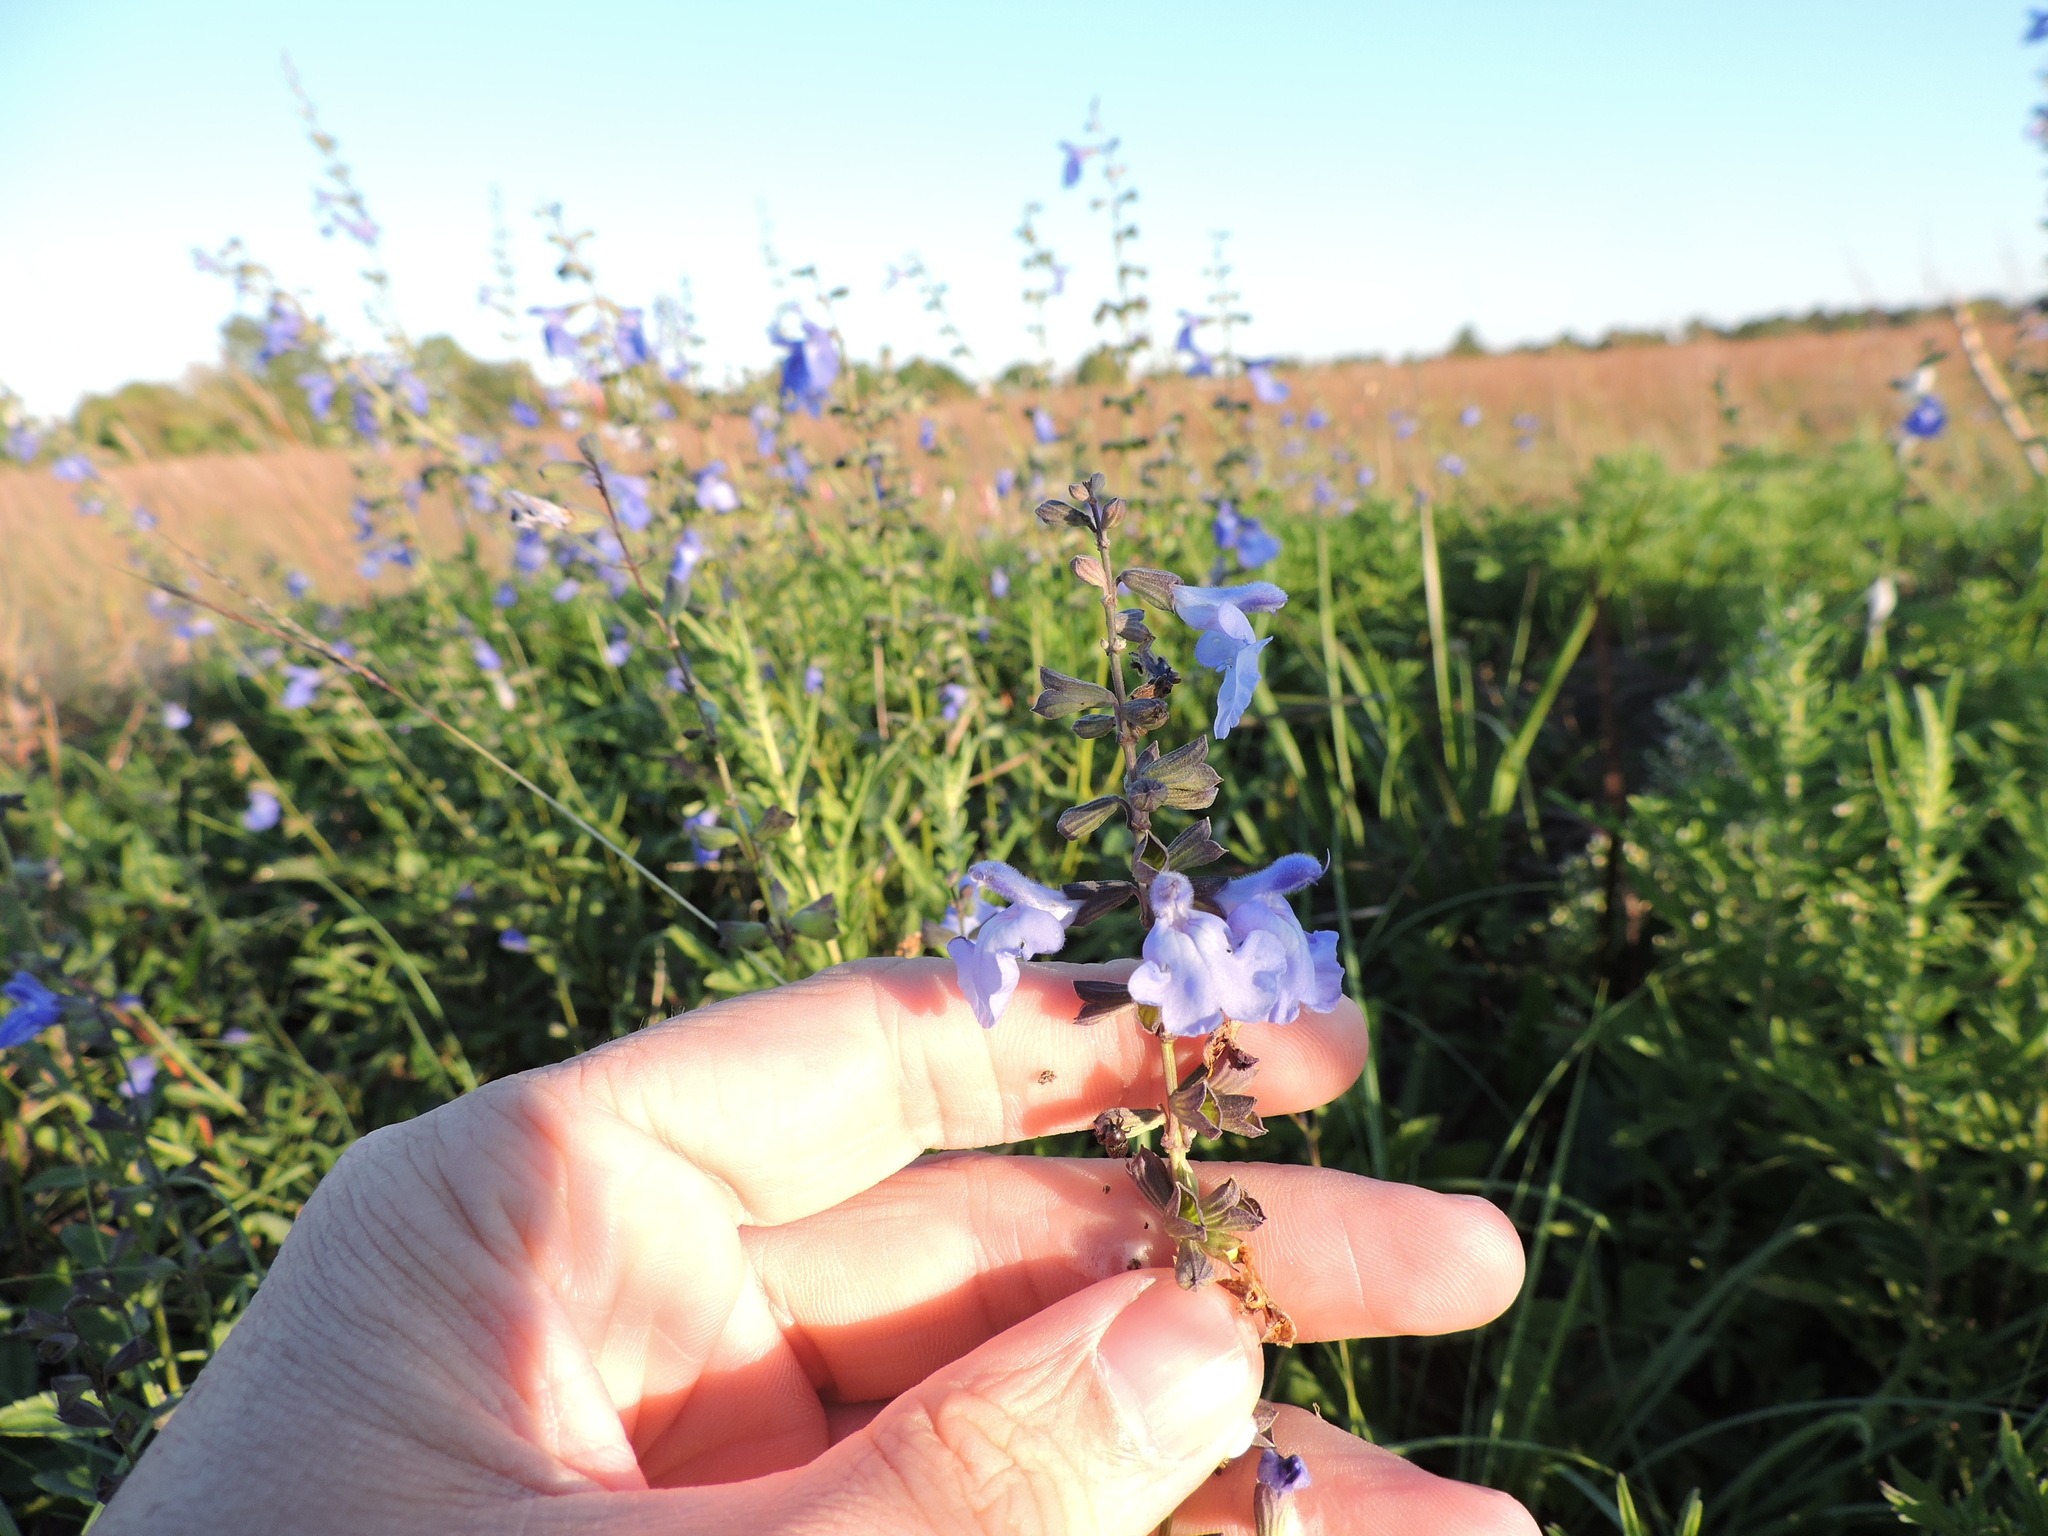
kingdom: Plantae
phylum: Tracheophyta
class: Magnoliopsida
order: Lamiales
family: Lamiaceae
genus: Salvia
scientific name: Salvia azurea
